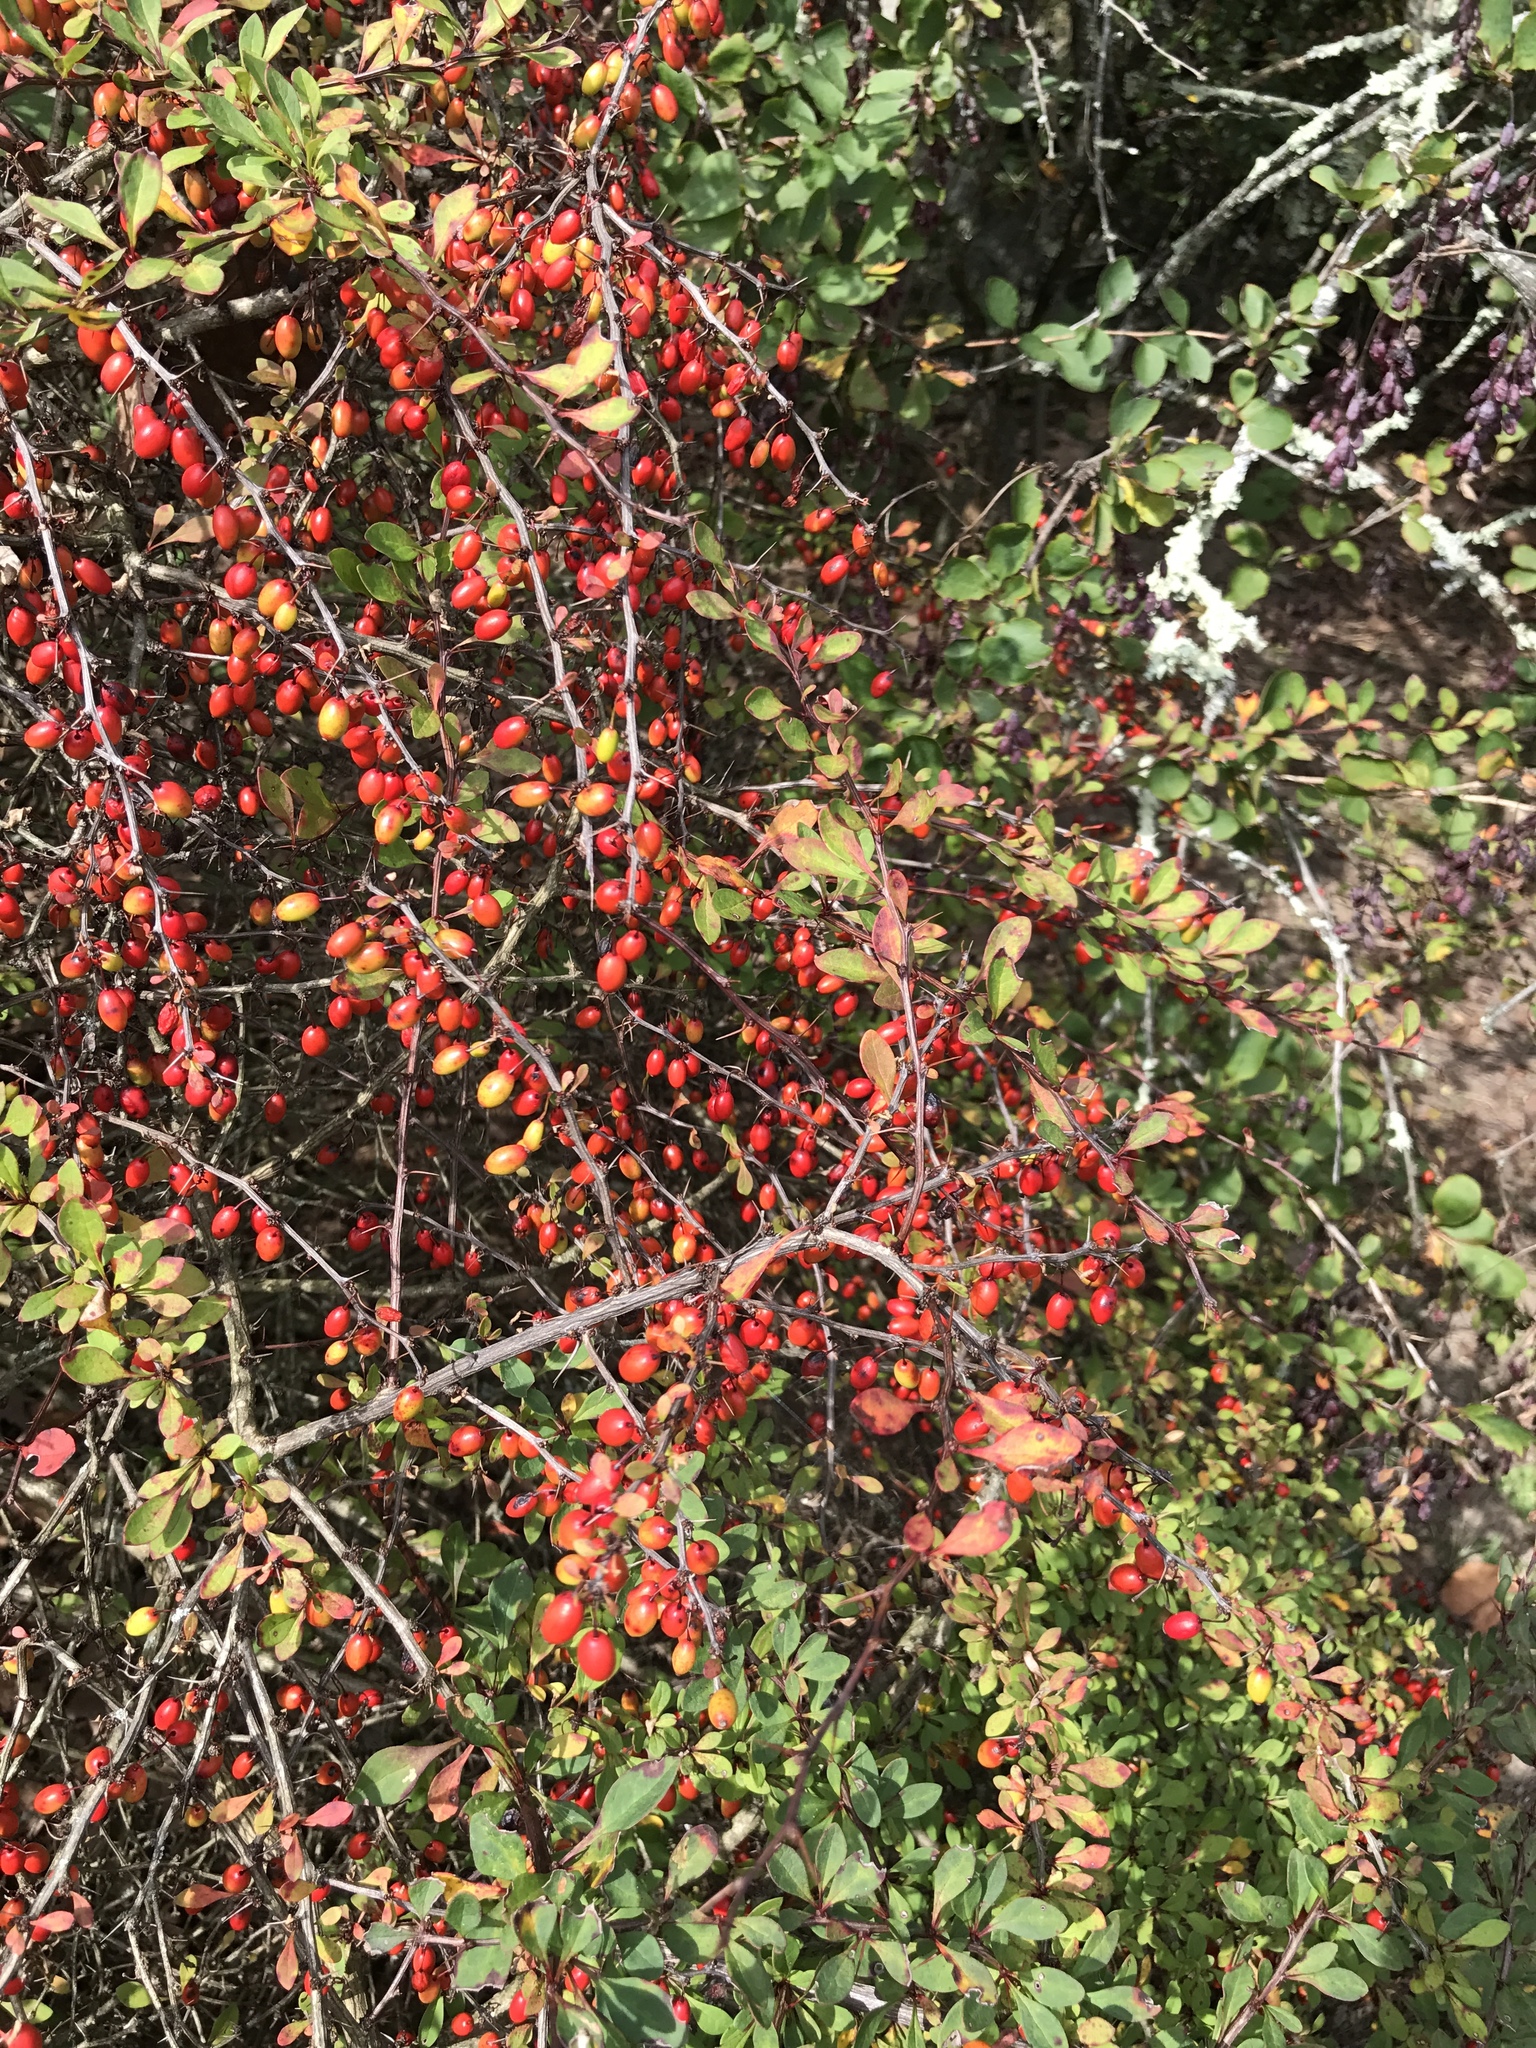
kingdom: Plantae
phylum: Tracheophyta
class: Magnoliopsida
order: Ranunculales
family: Berberidaceae
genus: Berberis
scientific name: Berberis thunbergii
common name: Japanese barberry
